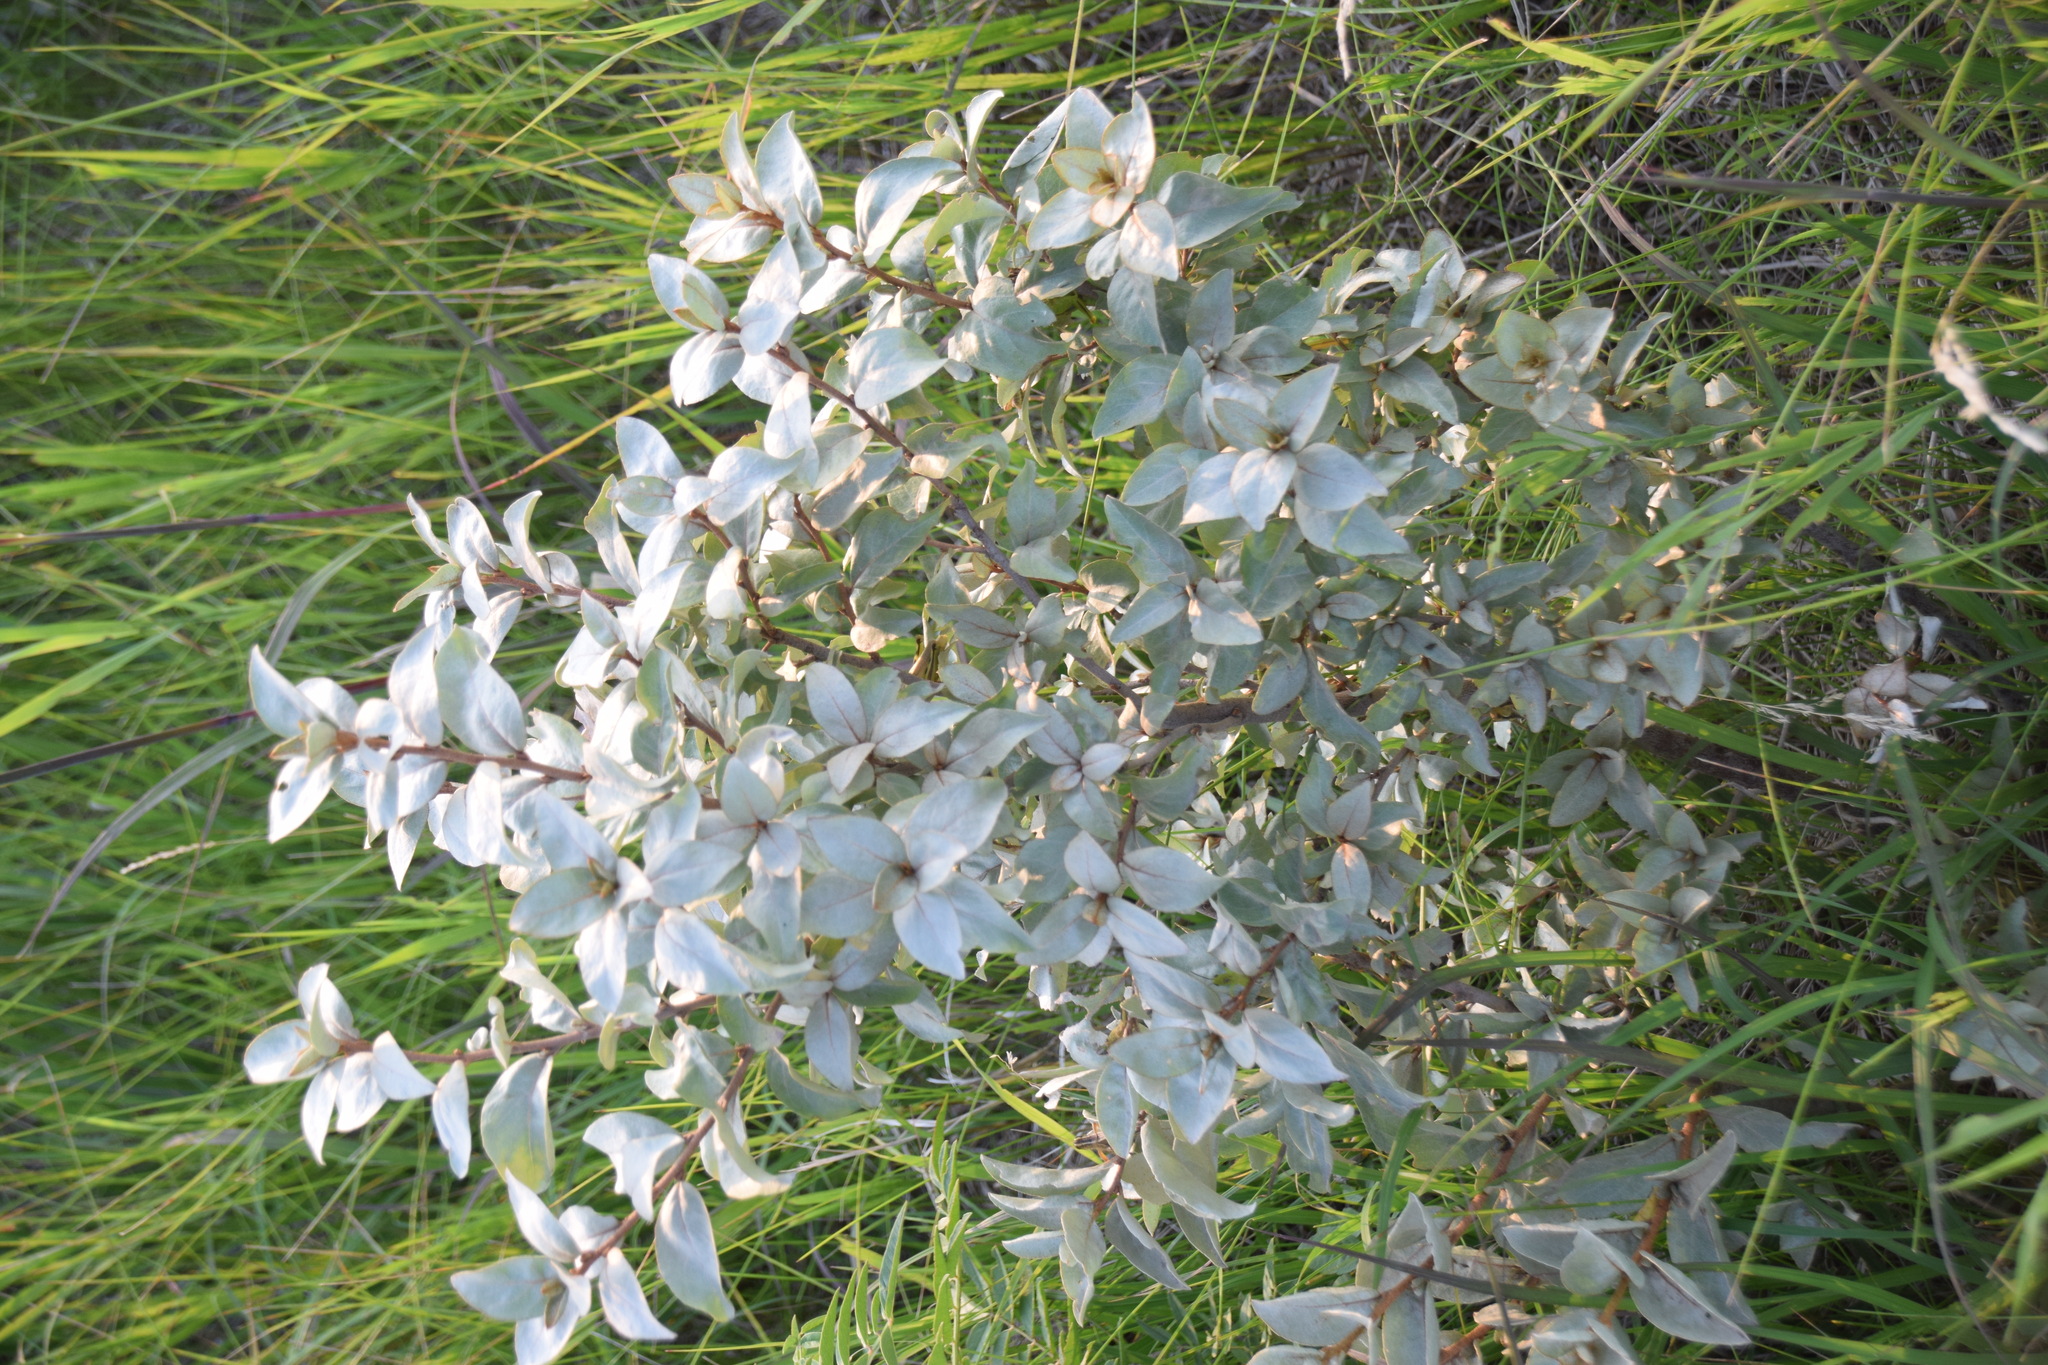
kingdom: Plantae
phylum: Tracheophyta
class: Magnoliopsida
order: Rosales
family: Elaeagnaceae
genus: Elaeagnus
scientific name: Elaeagnus commutata
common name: Silverberry
